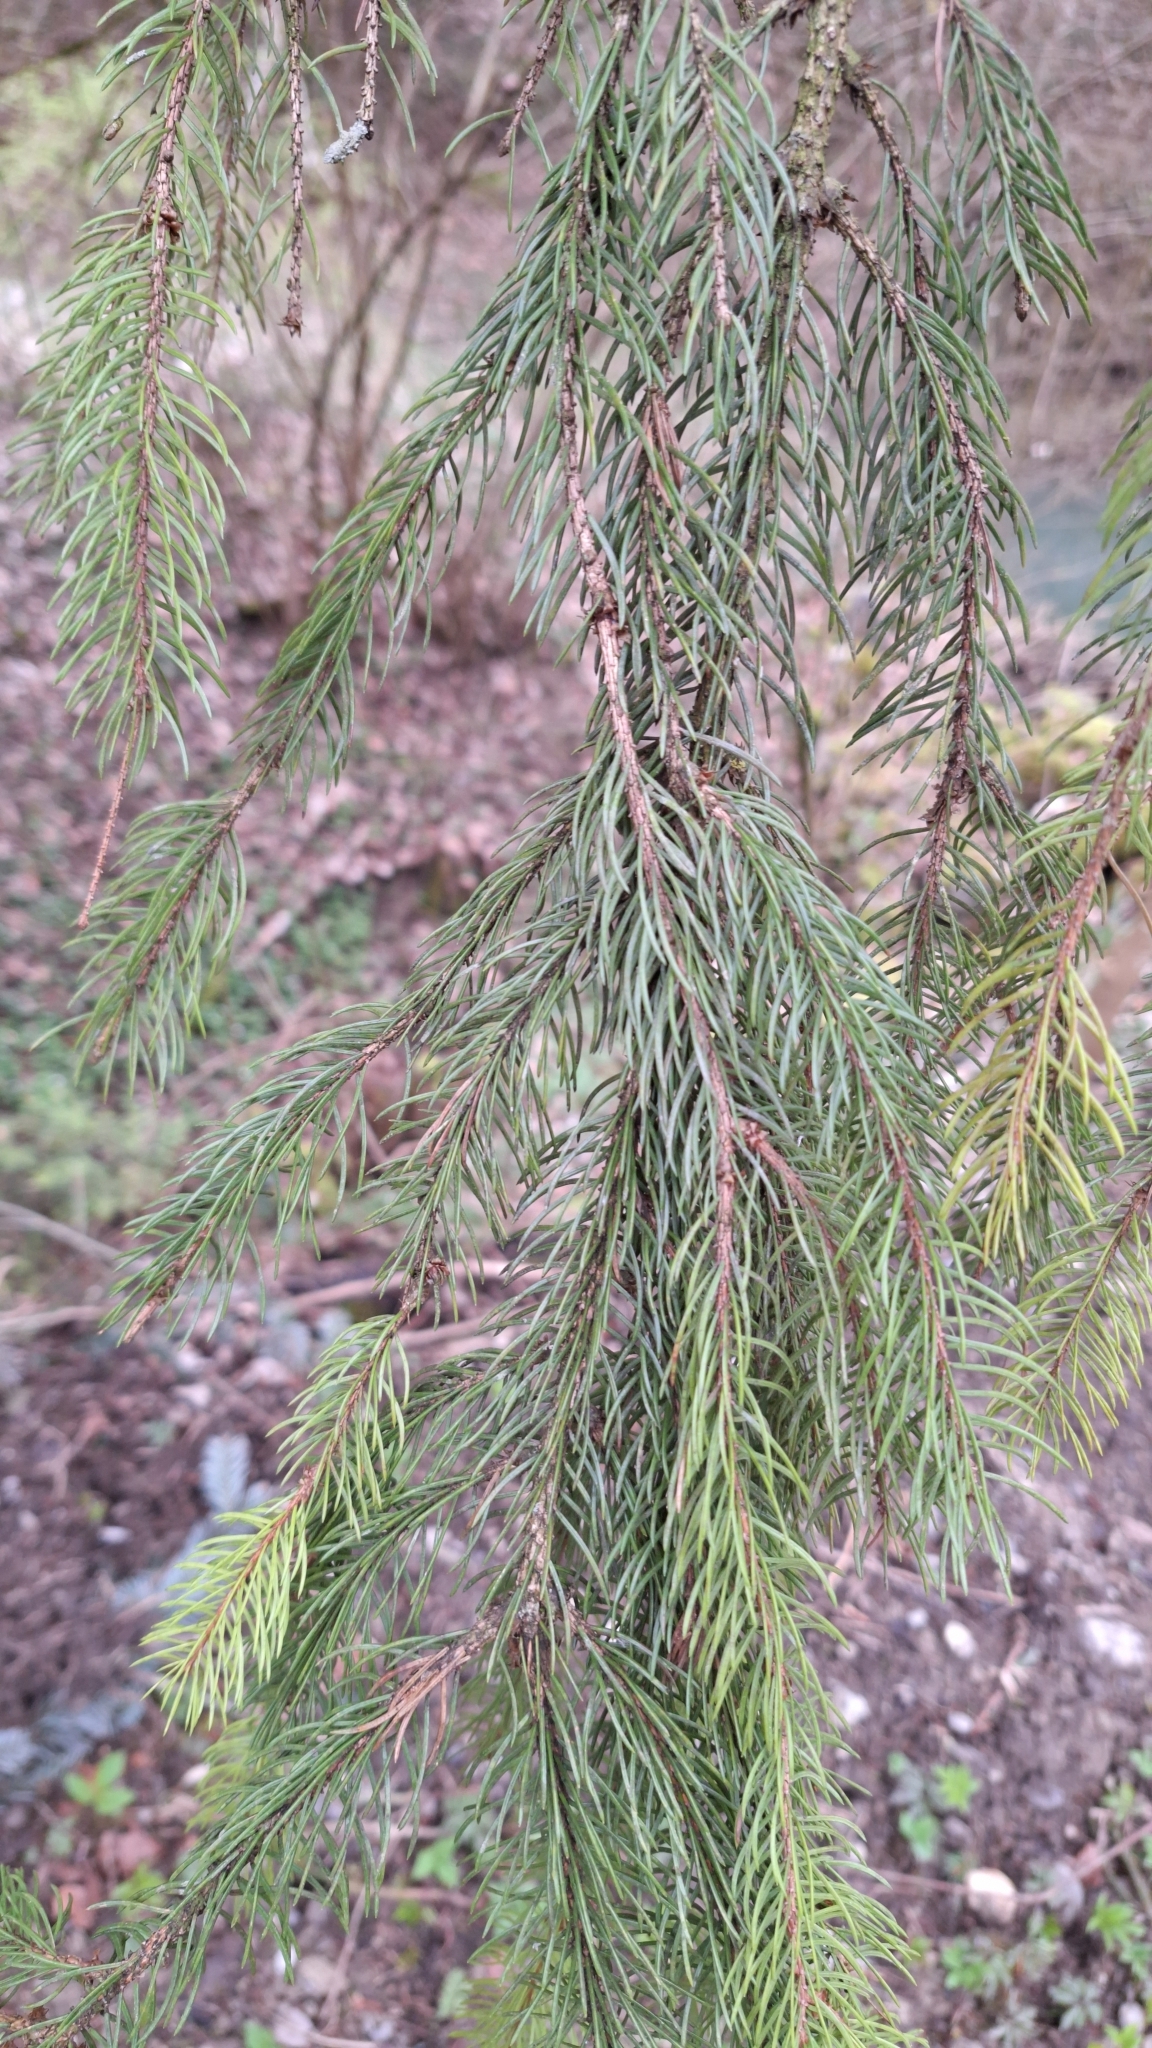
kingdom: Plantae
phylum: Tracheophyta
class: Pinopsida
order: Pinales
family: Pinaceae
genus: Picea
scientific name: Picea abies
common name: Norway spruce
